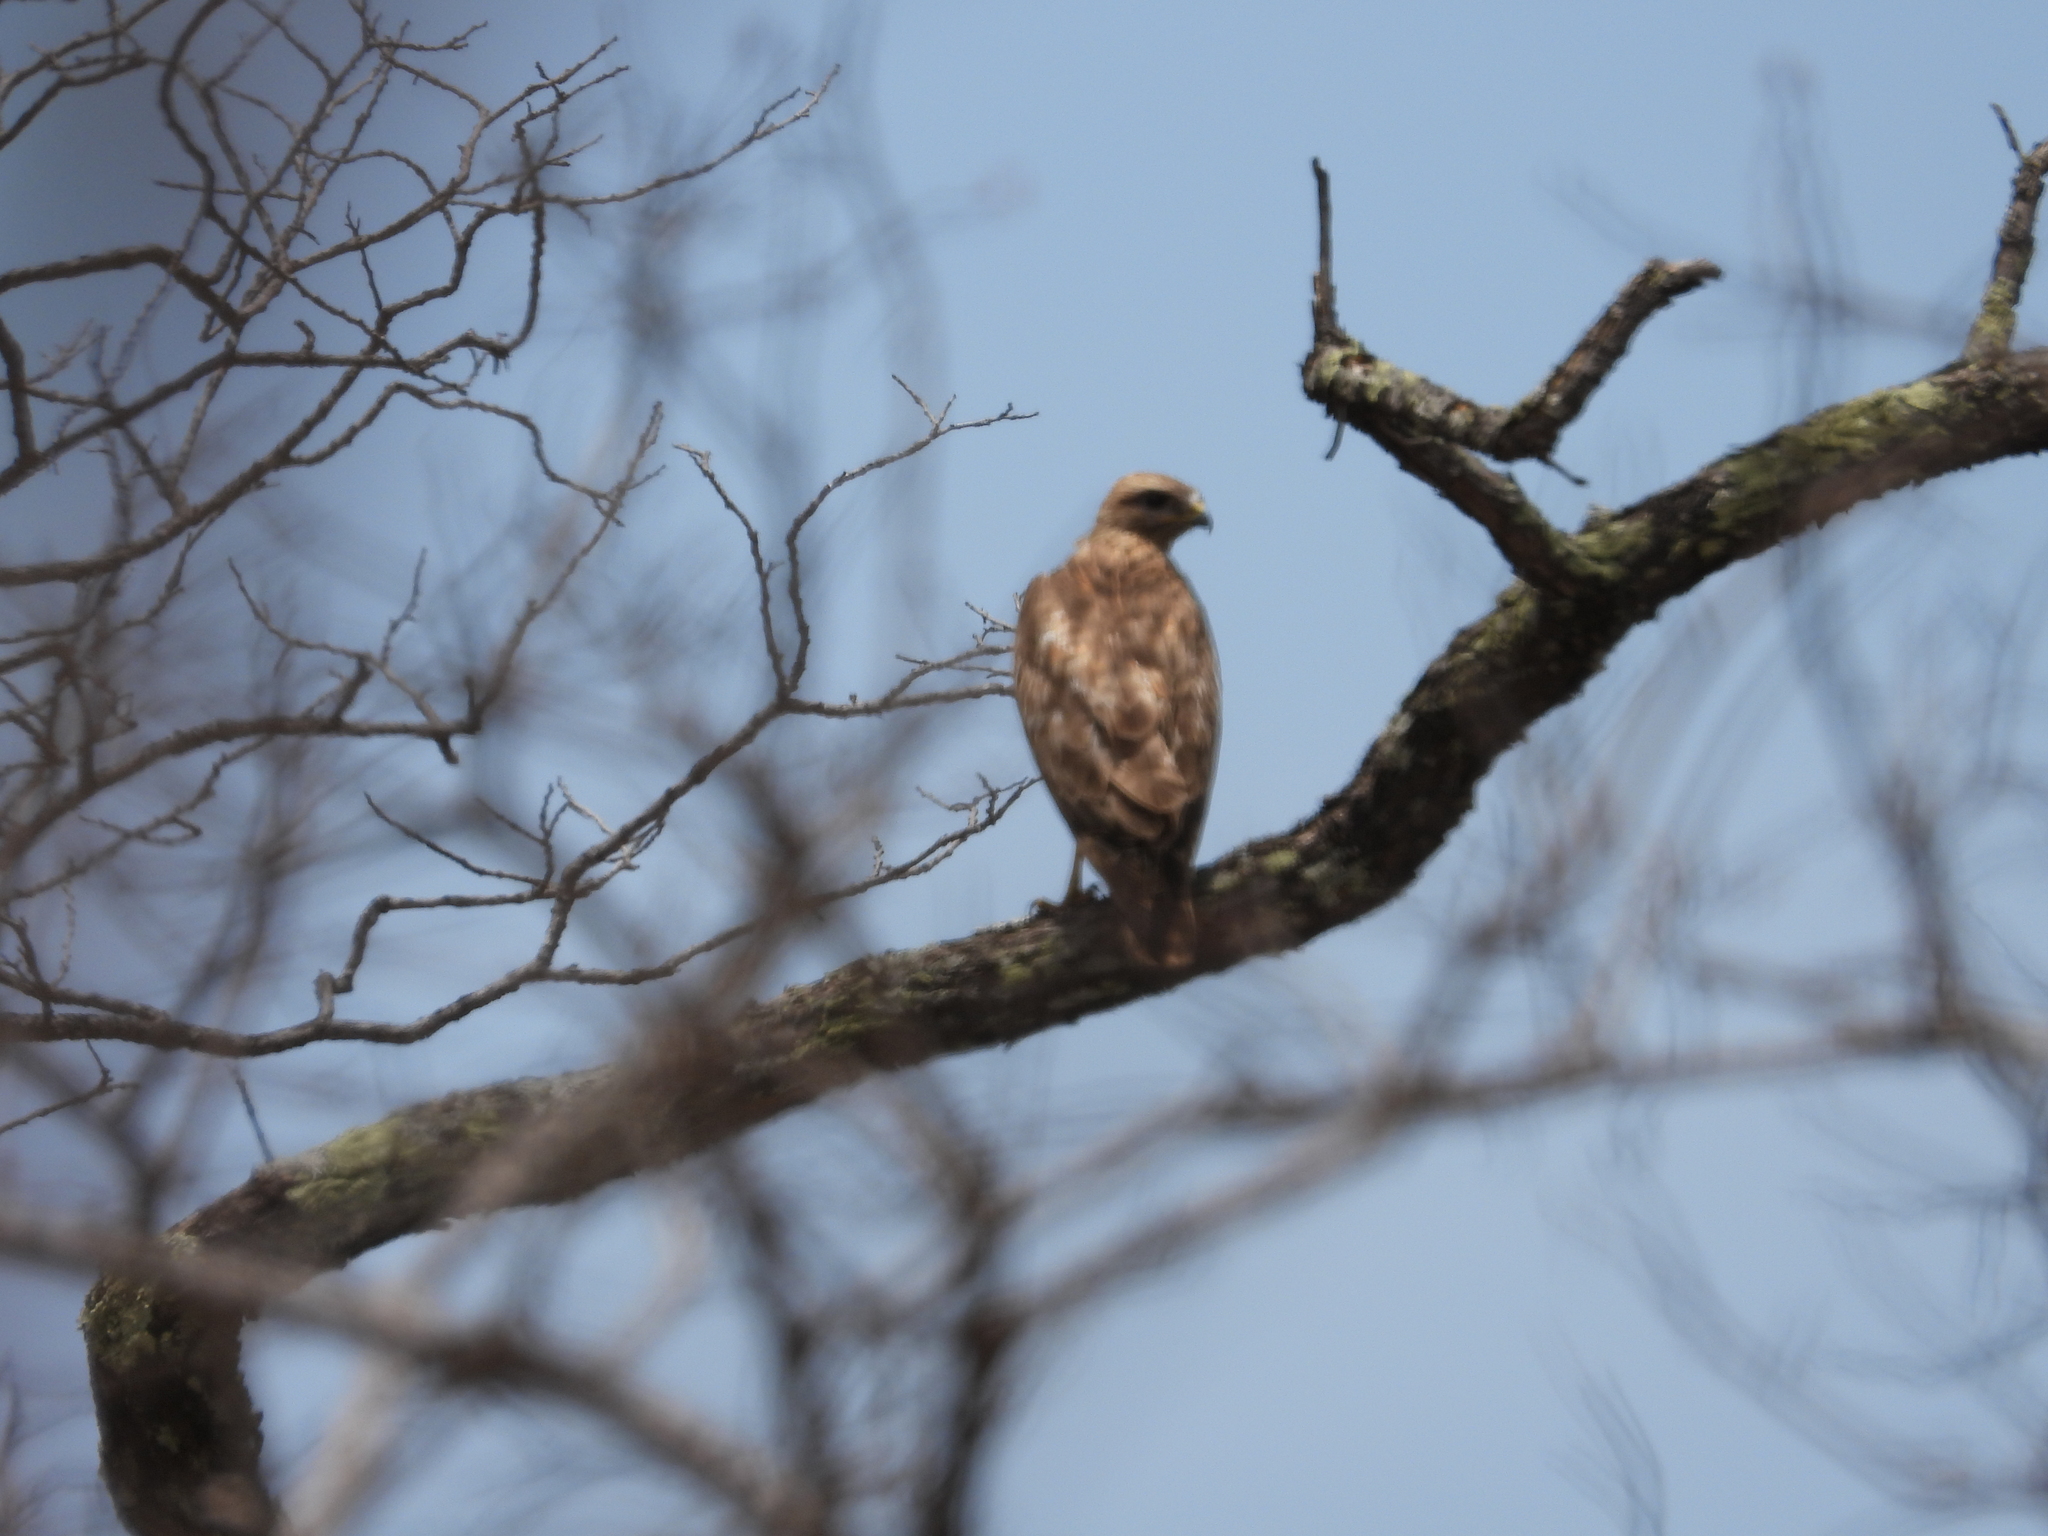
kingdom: Animalia
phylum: Chordata
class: Aves
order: Accipitriformes
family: Accipitridae
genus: Buteo
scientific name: Buteo buteo
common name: Common buzzard
